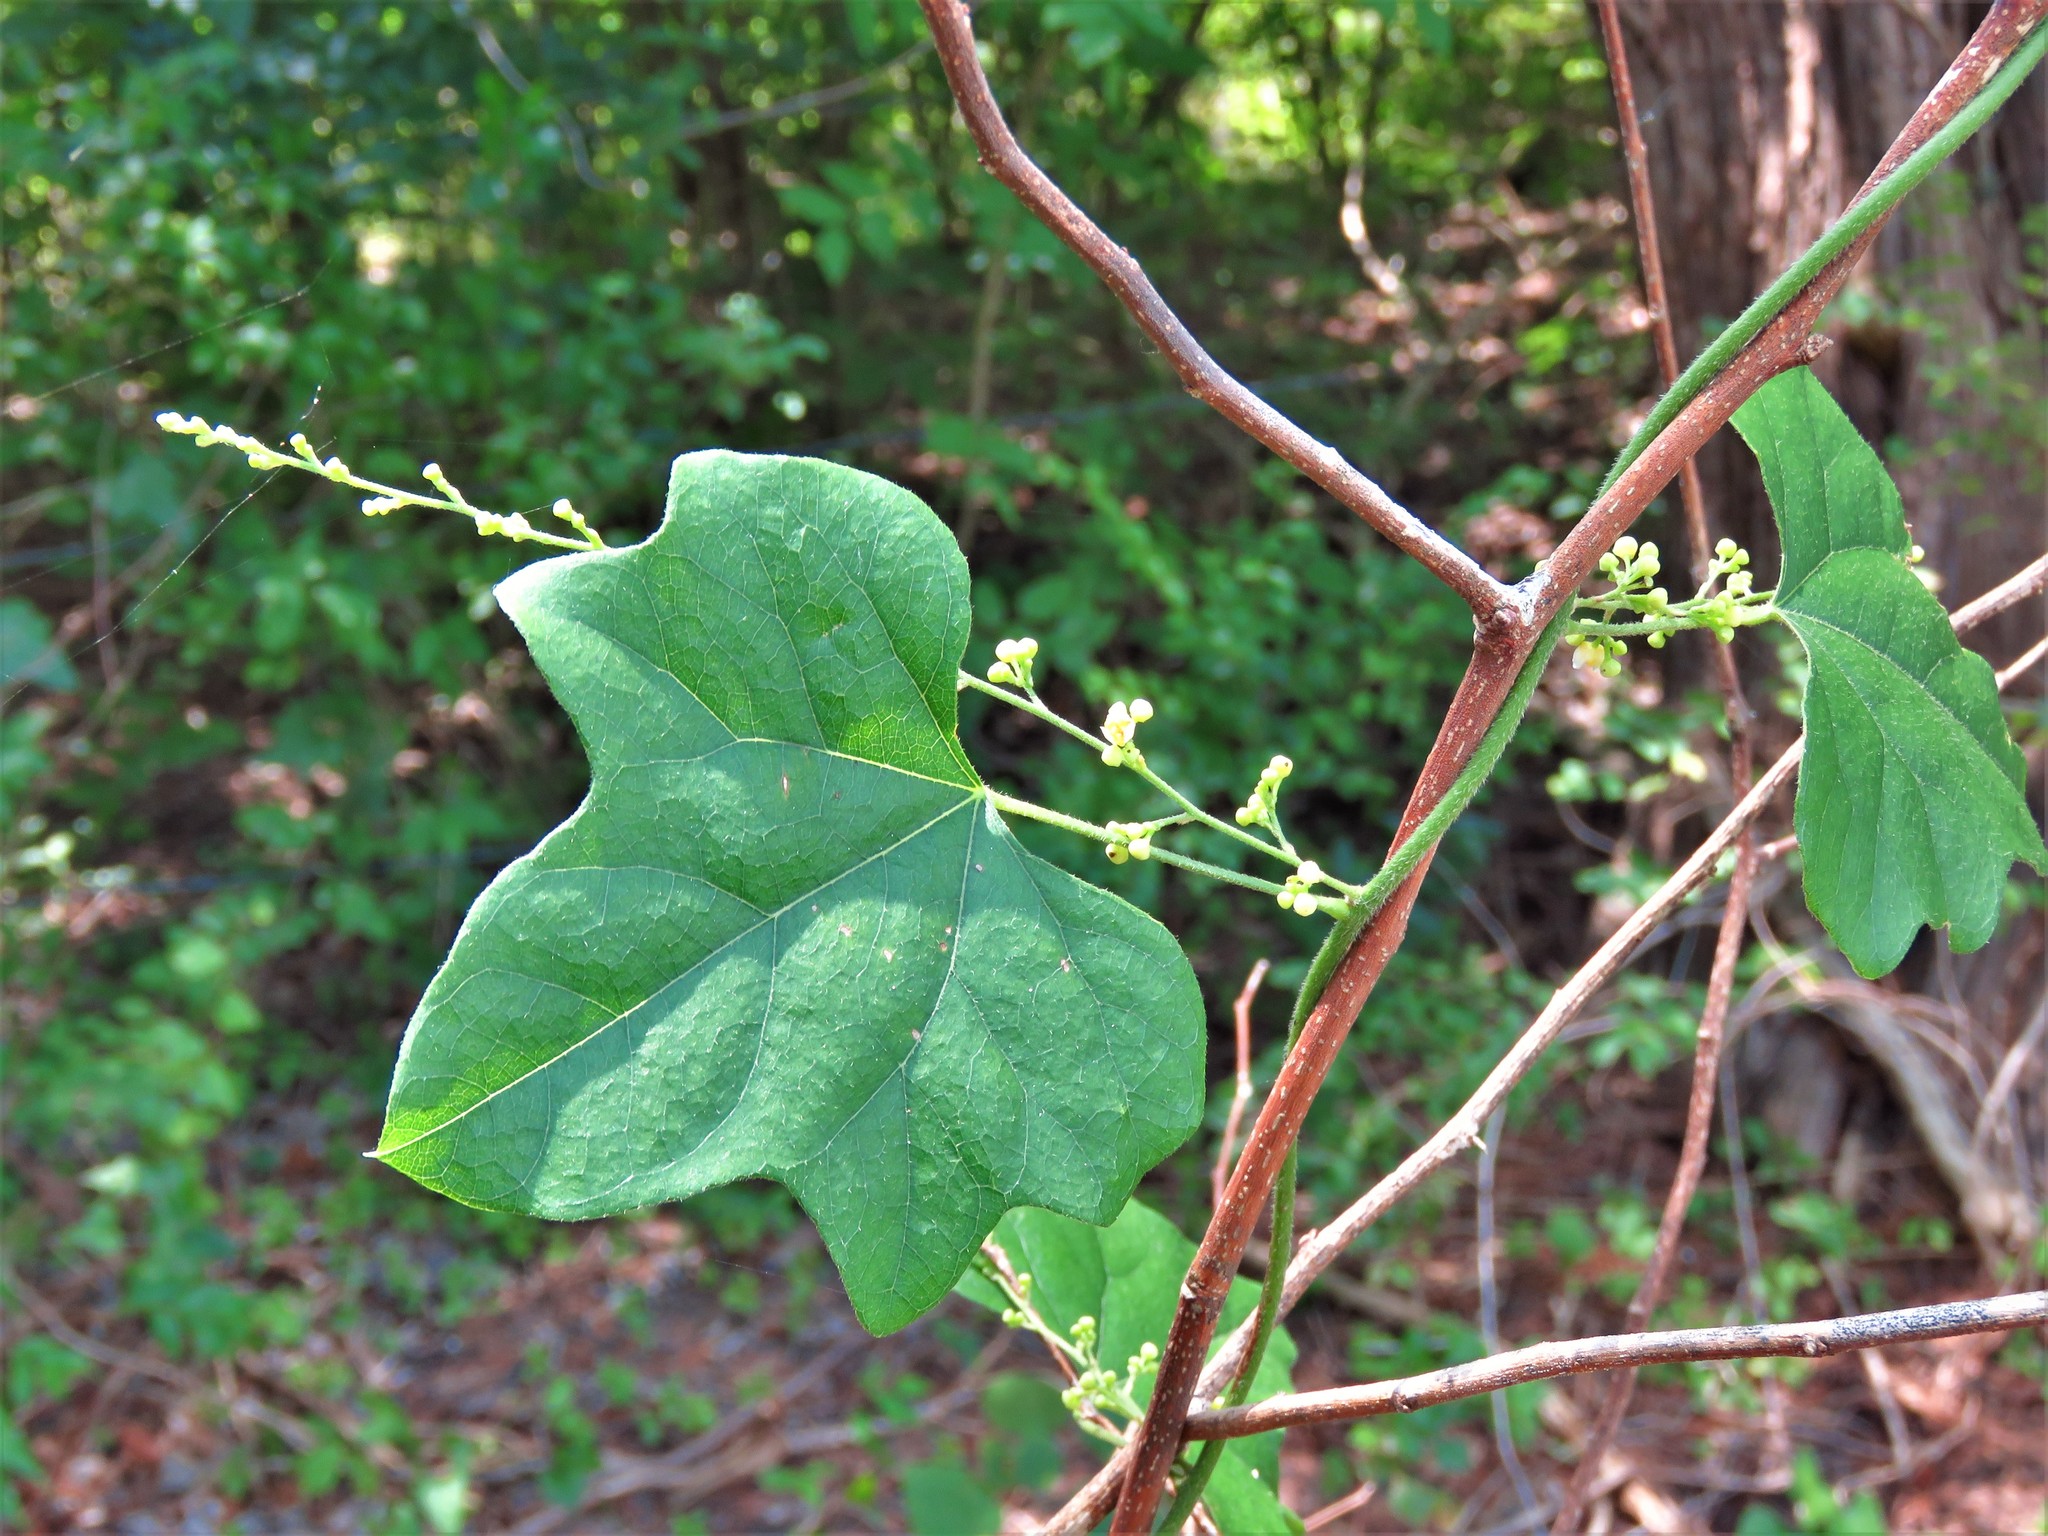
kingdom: Plantae
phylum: Tracheophyta
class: Magnoliopsida
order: Ranunculales
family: Menispermaceae
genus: Cocculus
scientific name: Cocculus carolinus
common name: Carolina moonseed
